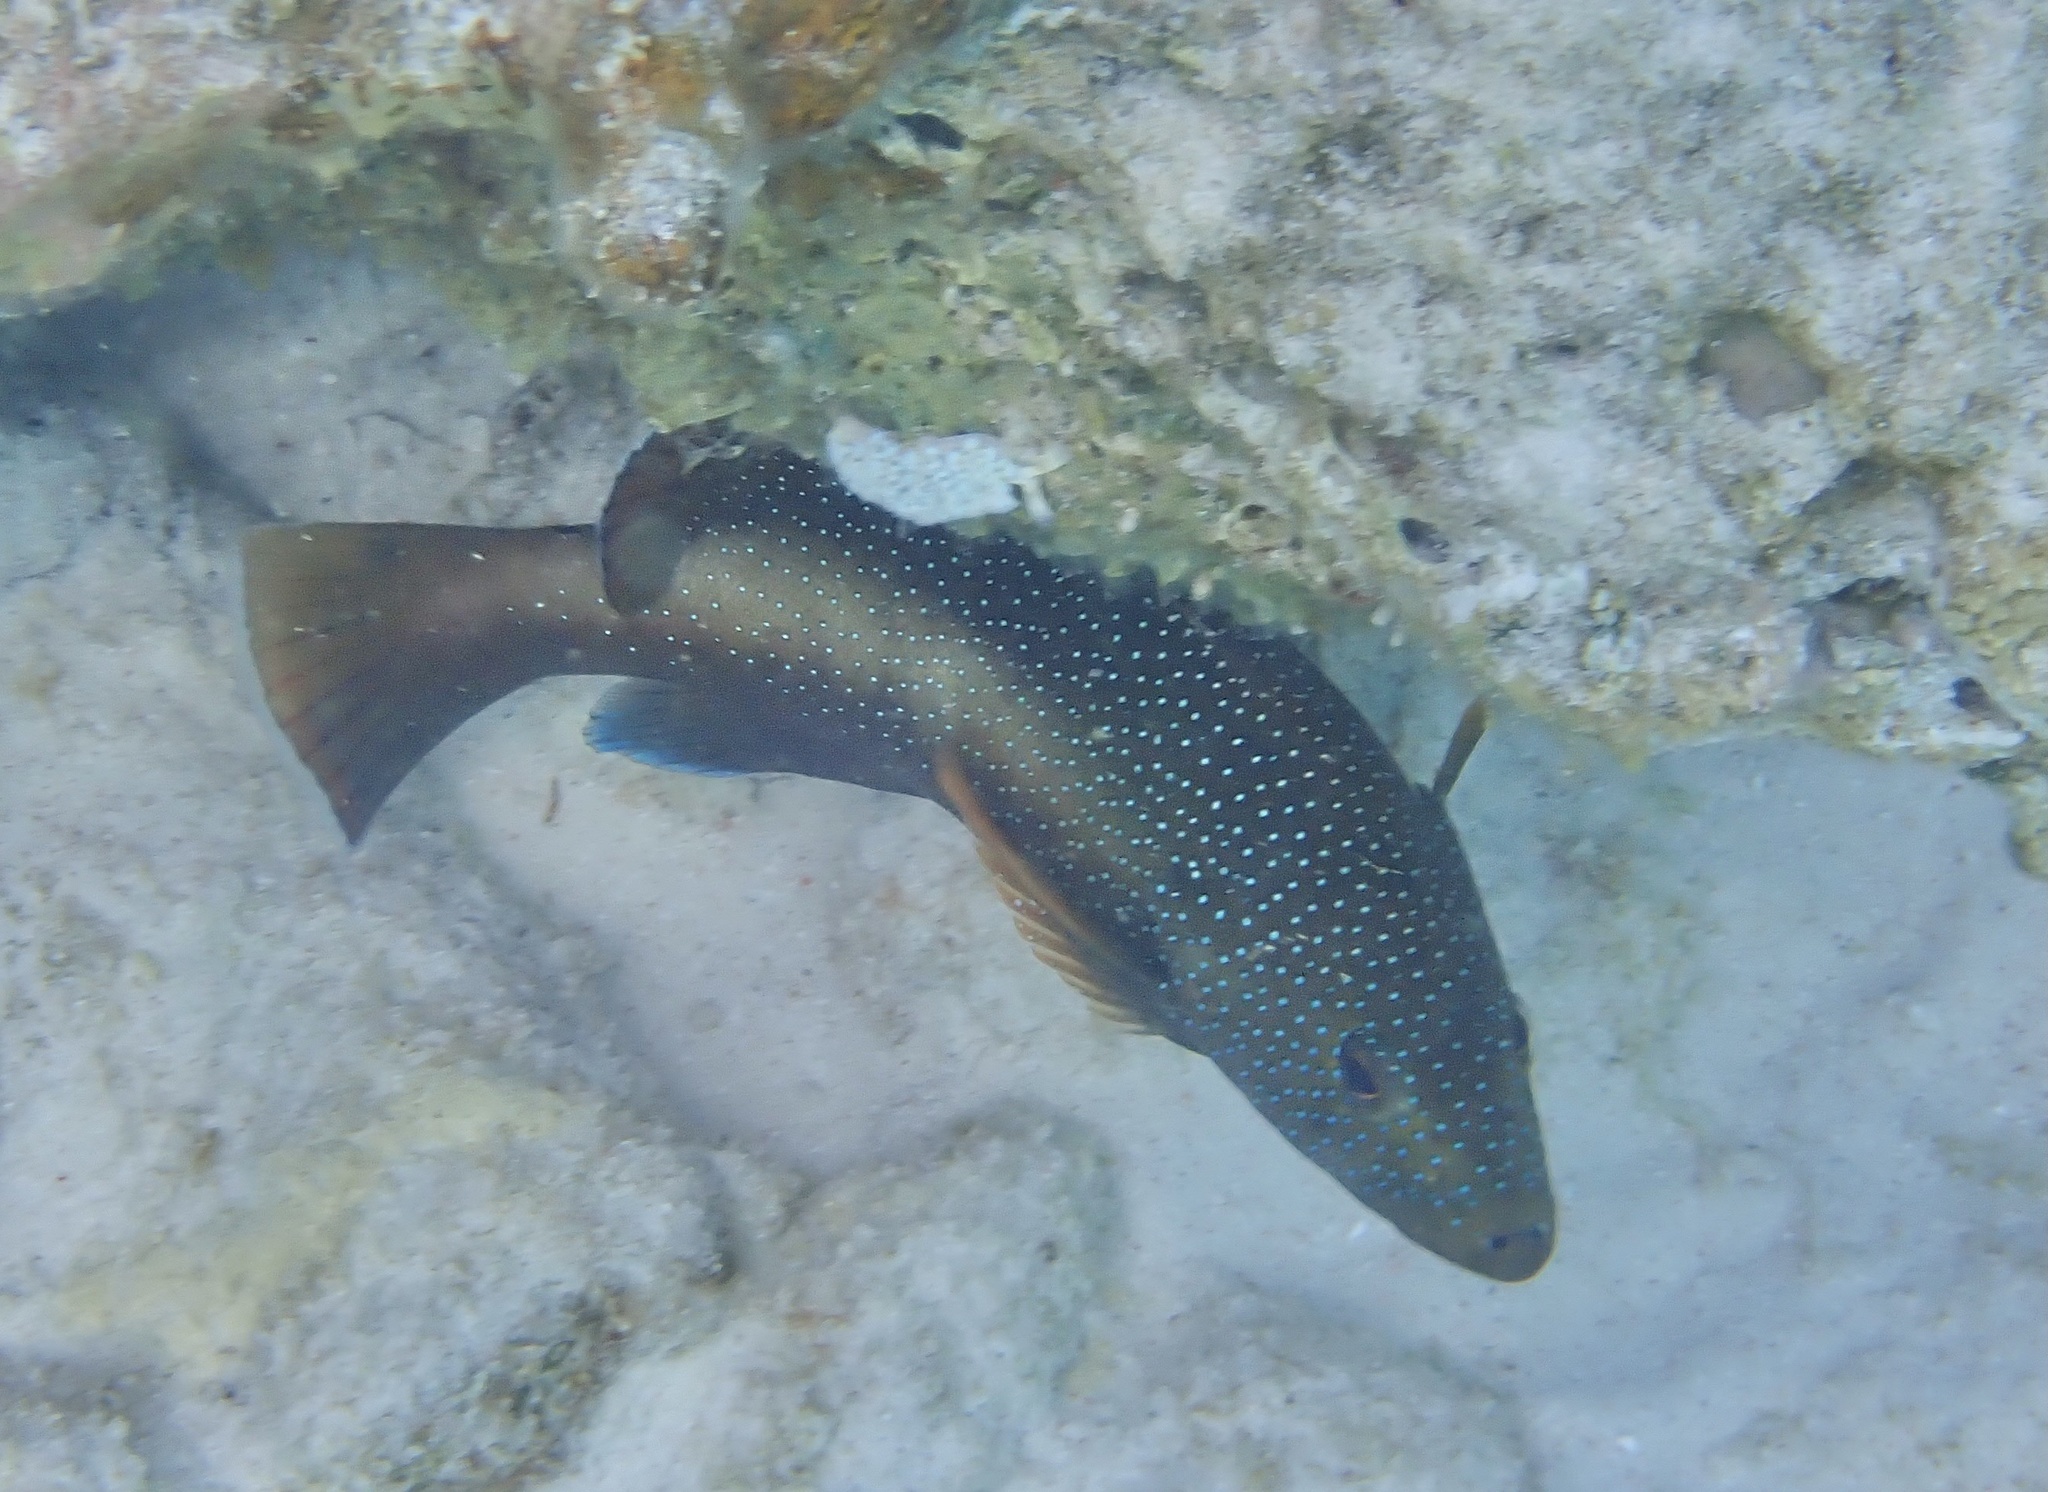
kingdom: Animalia
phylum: Chordata
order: Perciformes
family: Serranidae
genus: Cephalopholis
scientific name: Cephalopholis fulva
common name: Butterfish
